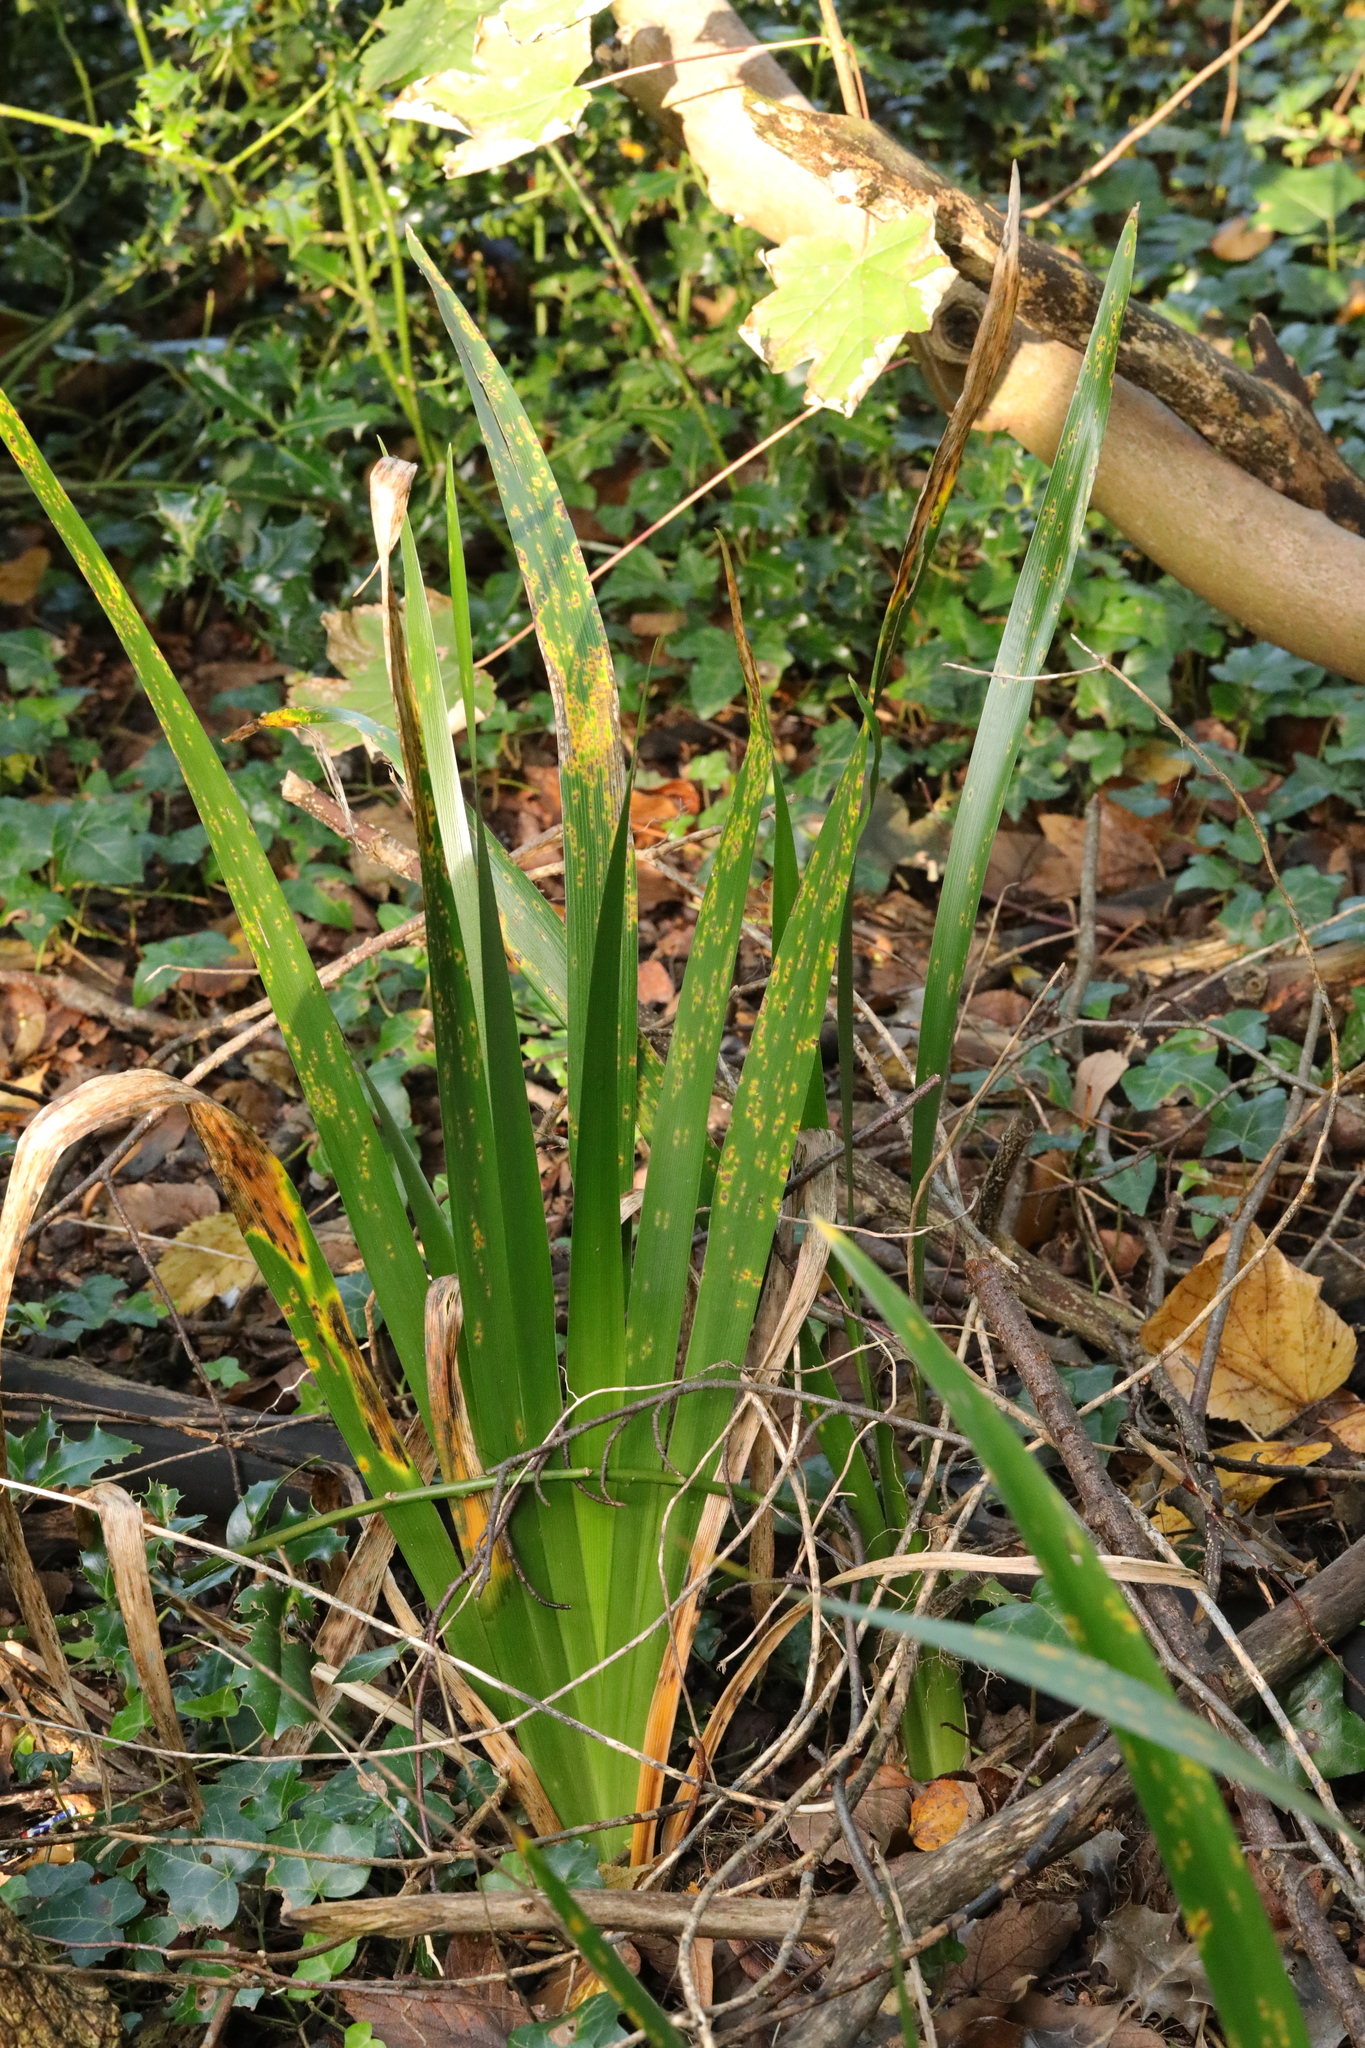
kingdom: Plantae
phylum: Tracheophyta
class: Liliopsida
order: Asparagales
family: Iridaceae
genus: Iris
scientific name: Iris foetidissima
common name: Stinking iris
